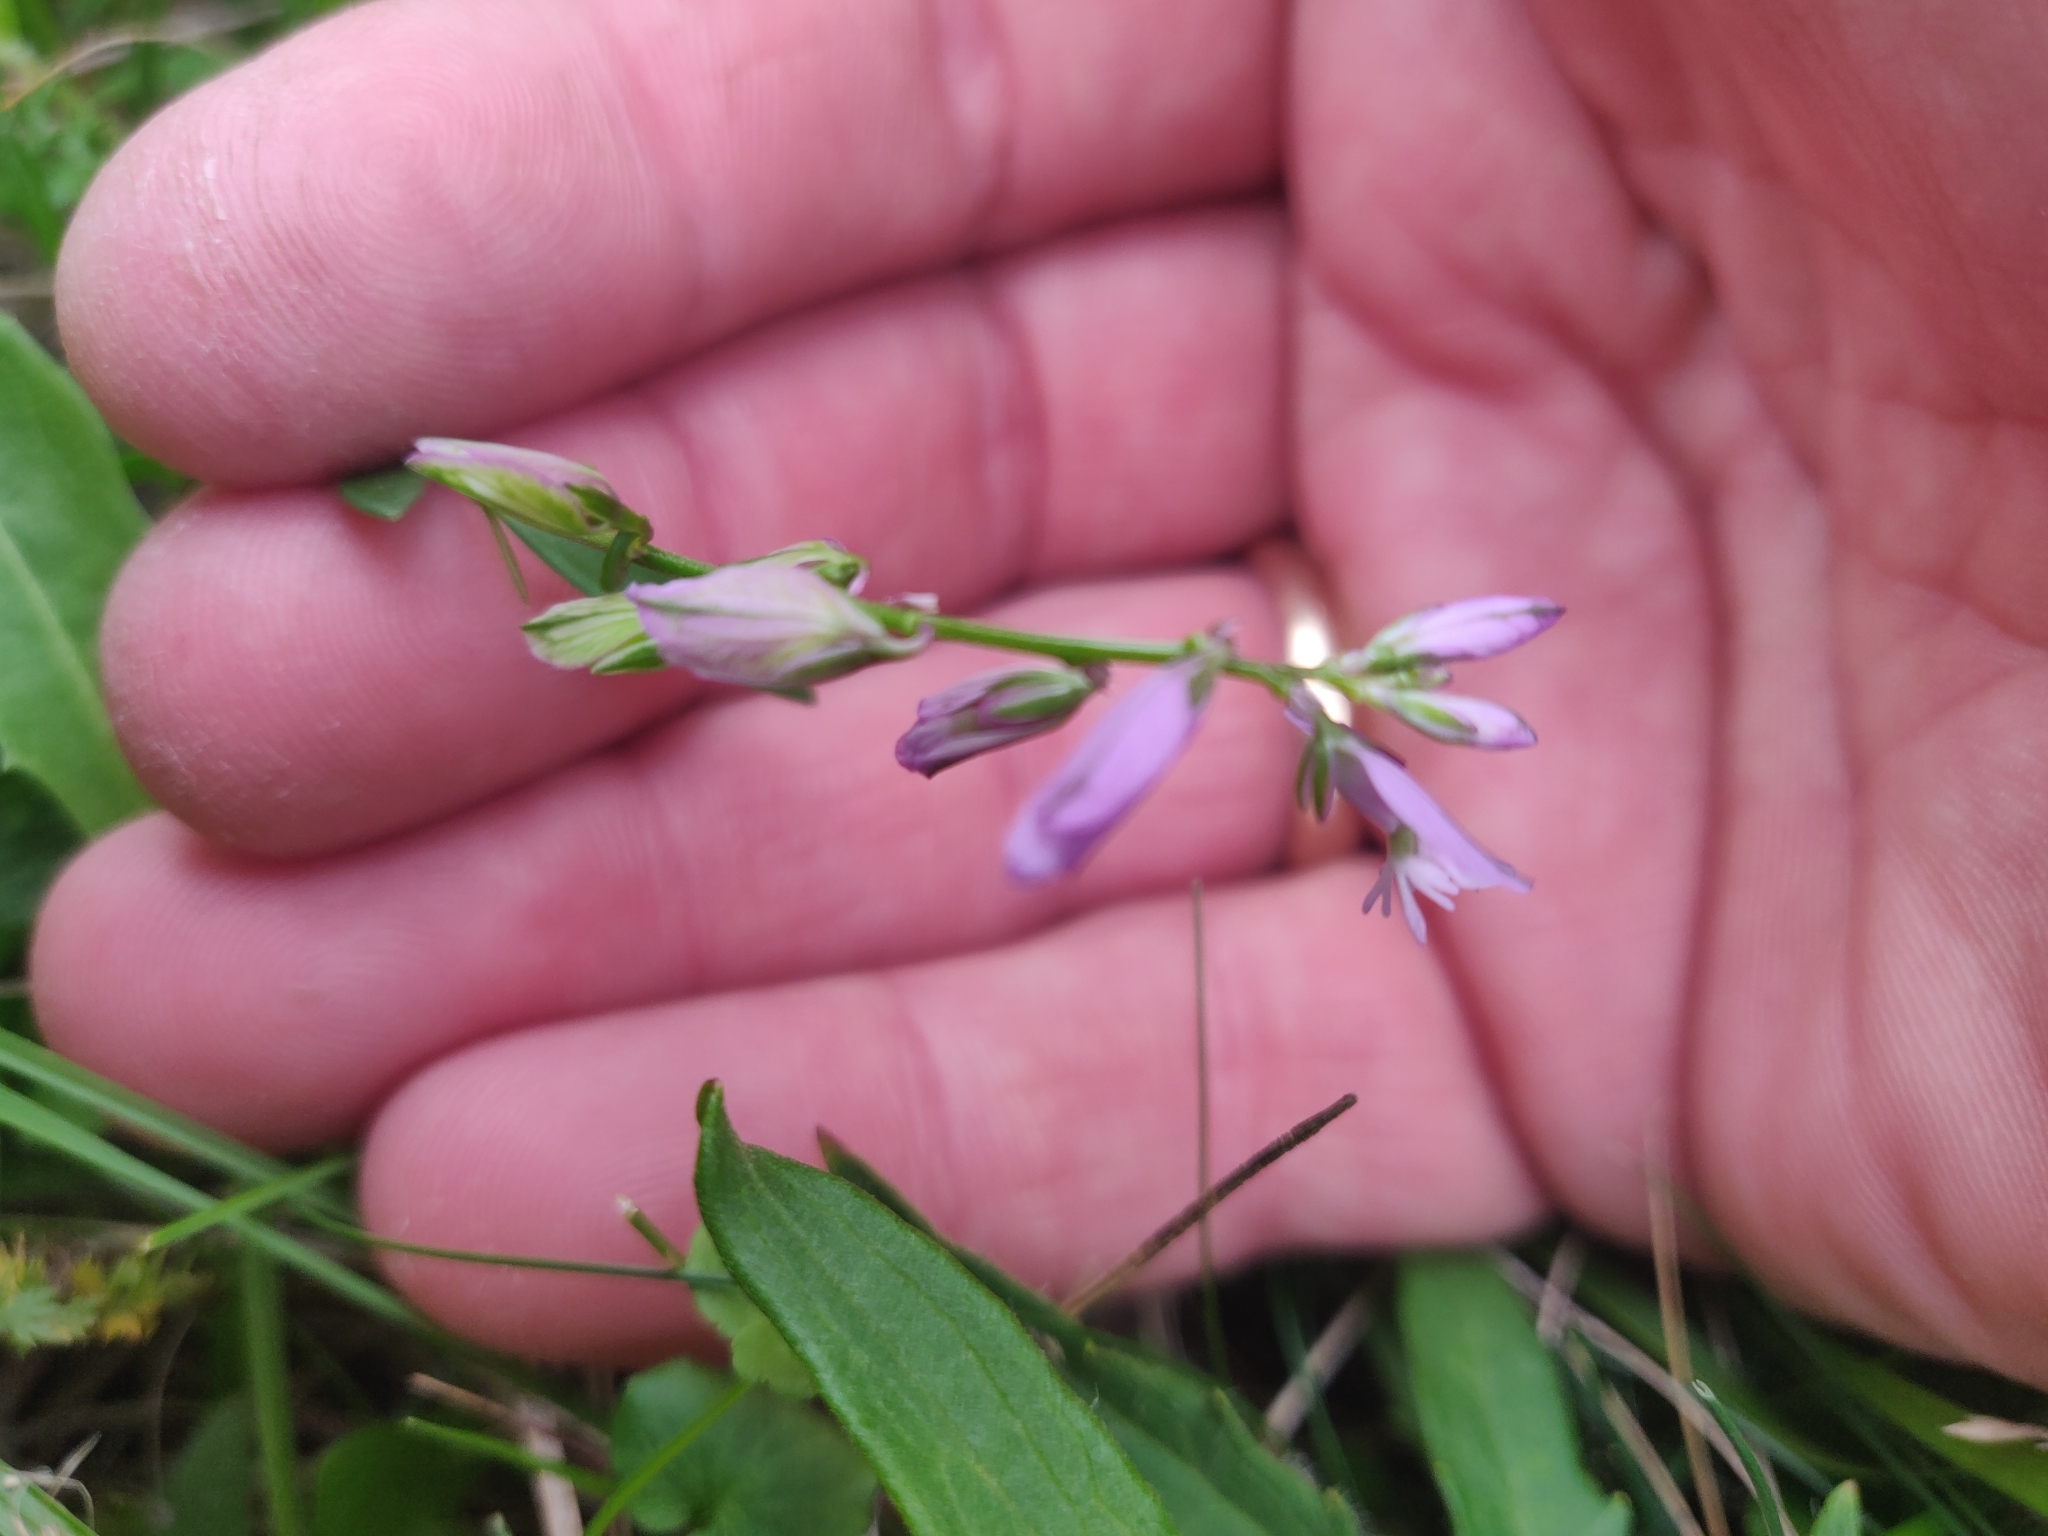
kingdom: Plantae
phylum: Tracheophyta
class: Magnoliopsida
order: Fabales
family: Polygalaceae
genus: Polygala
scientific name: Polygala vulgaris
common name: Common milkwort
